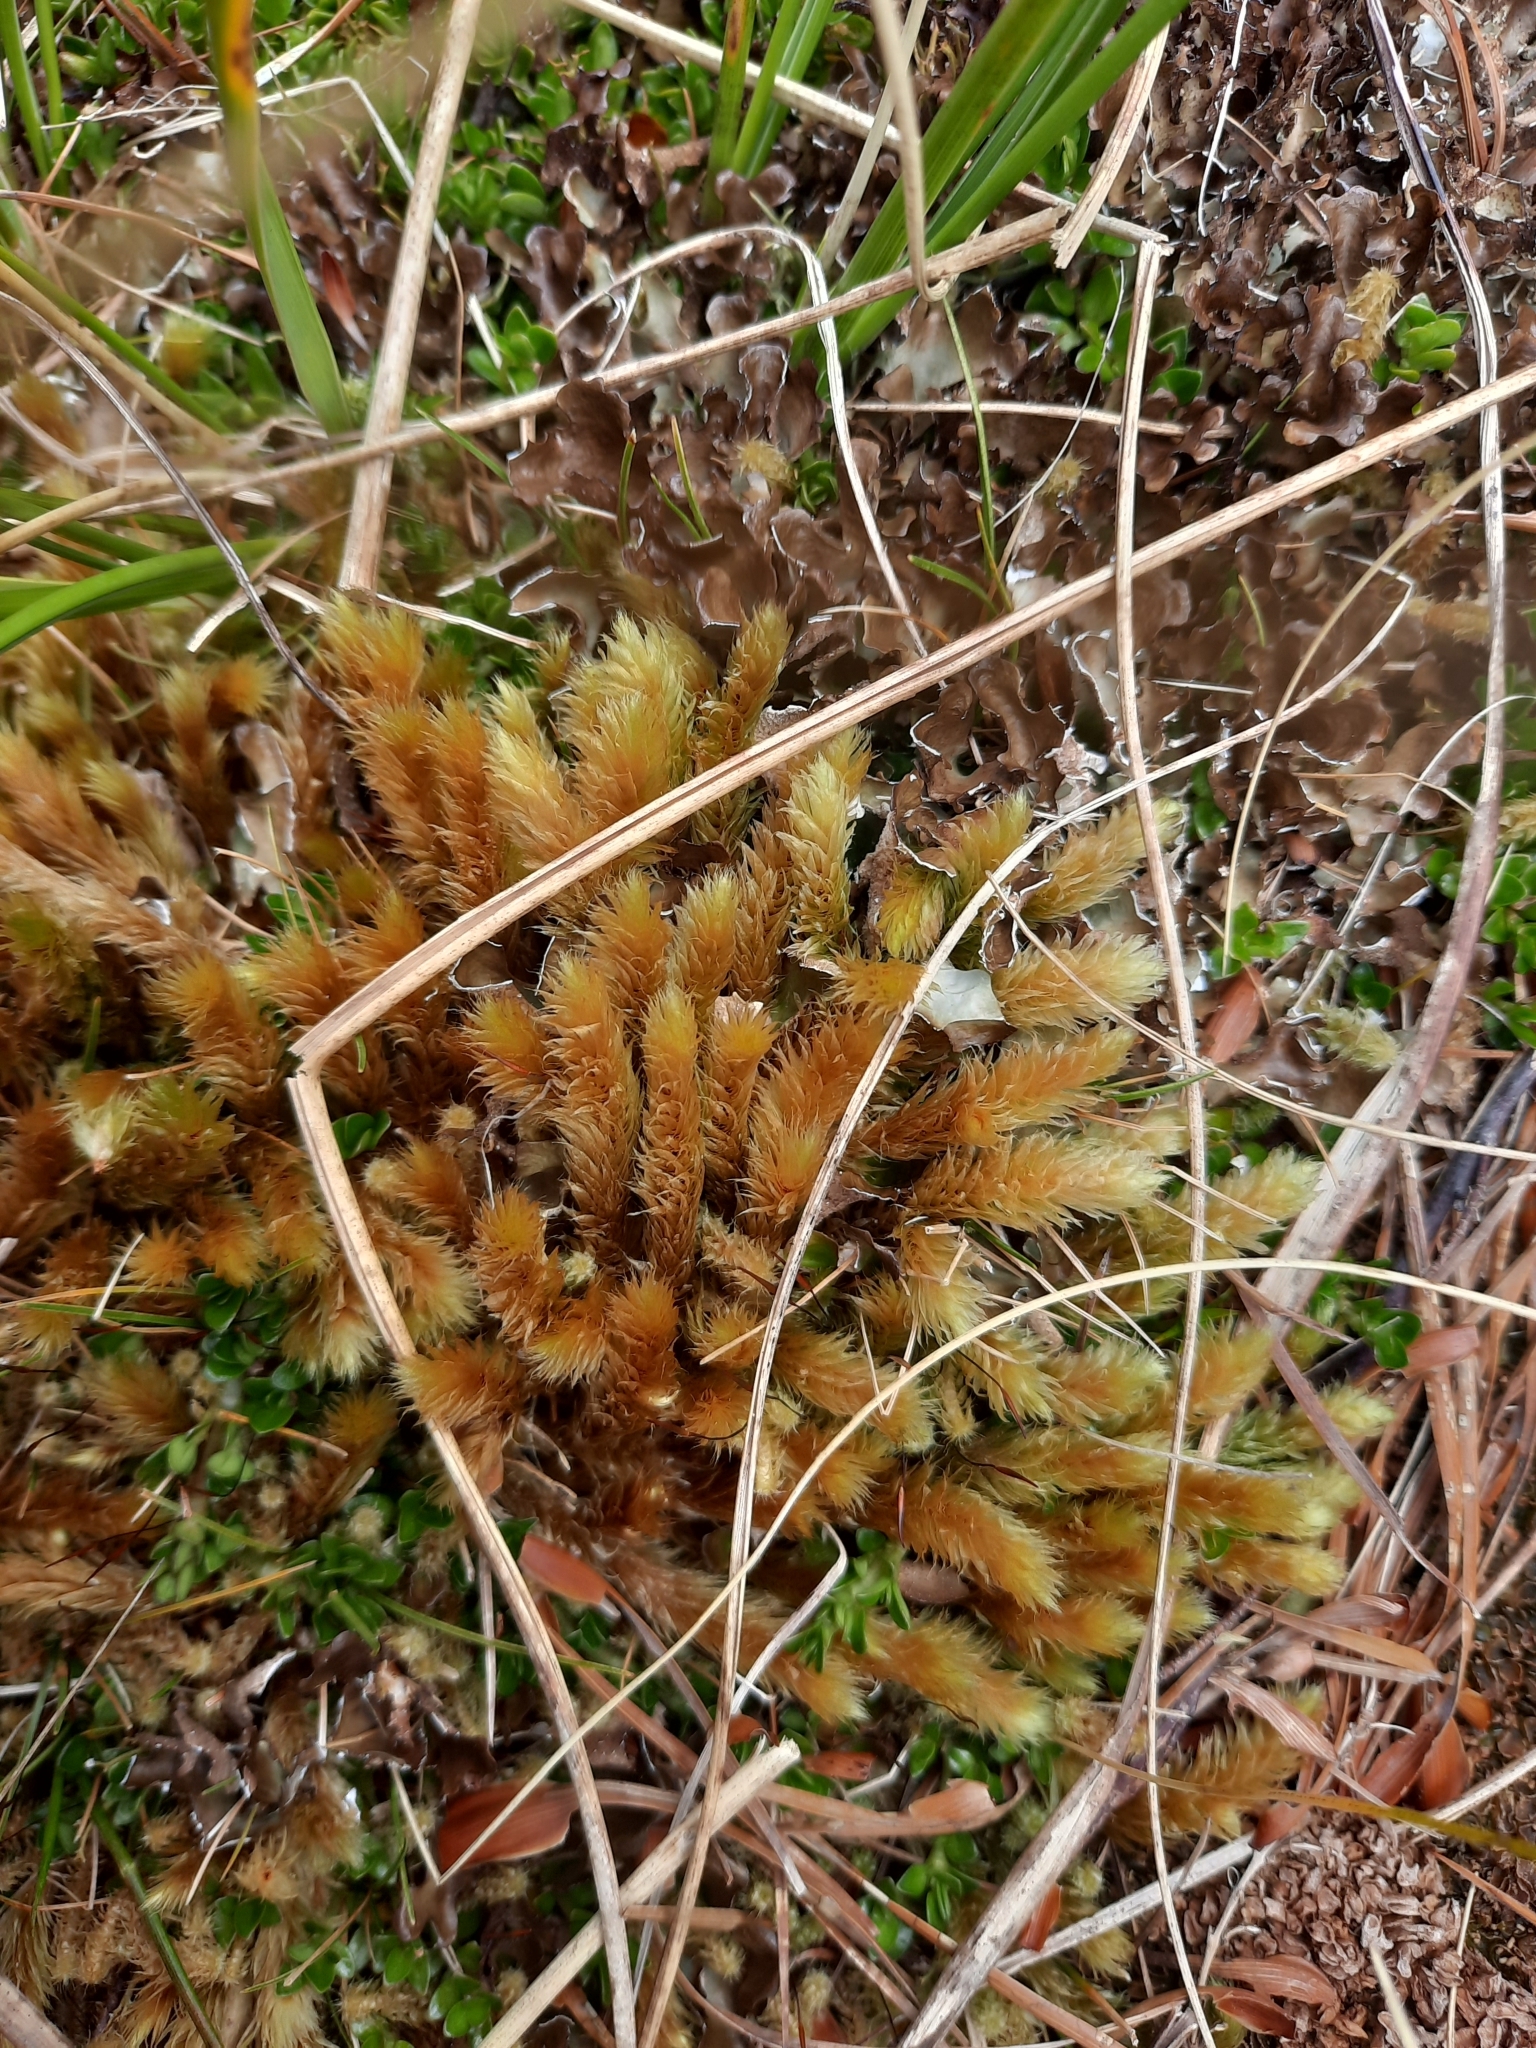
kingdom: Plantae
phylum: Bryophyta
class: Bryopsida
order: Bartramiales
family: Bartramiaceae
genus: Breutelia
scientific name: Breutelia elongata
